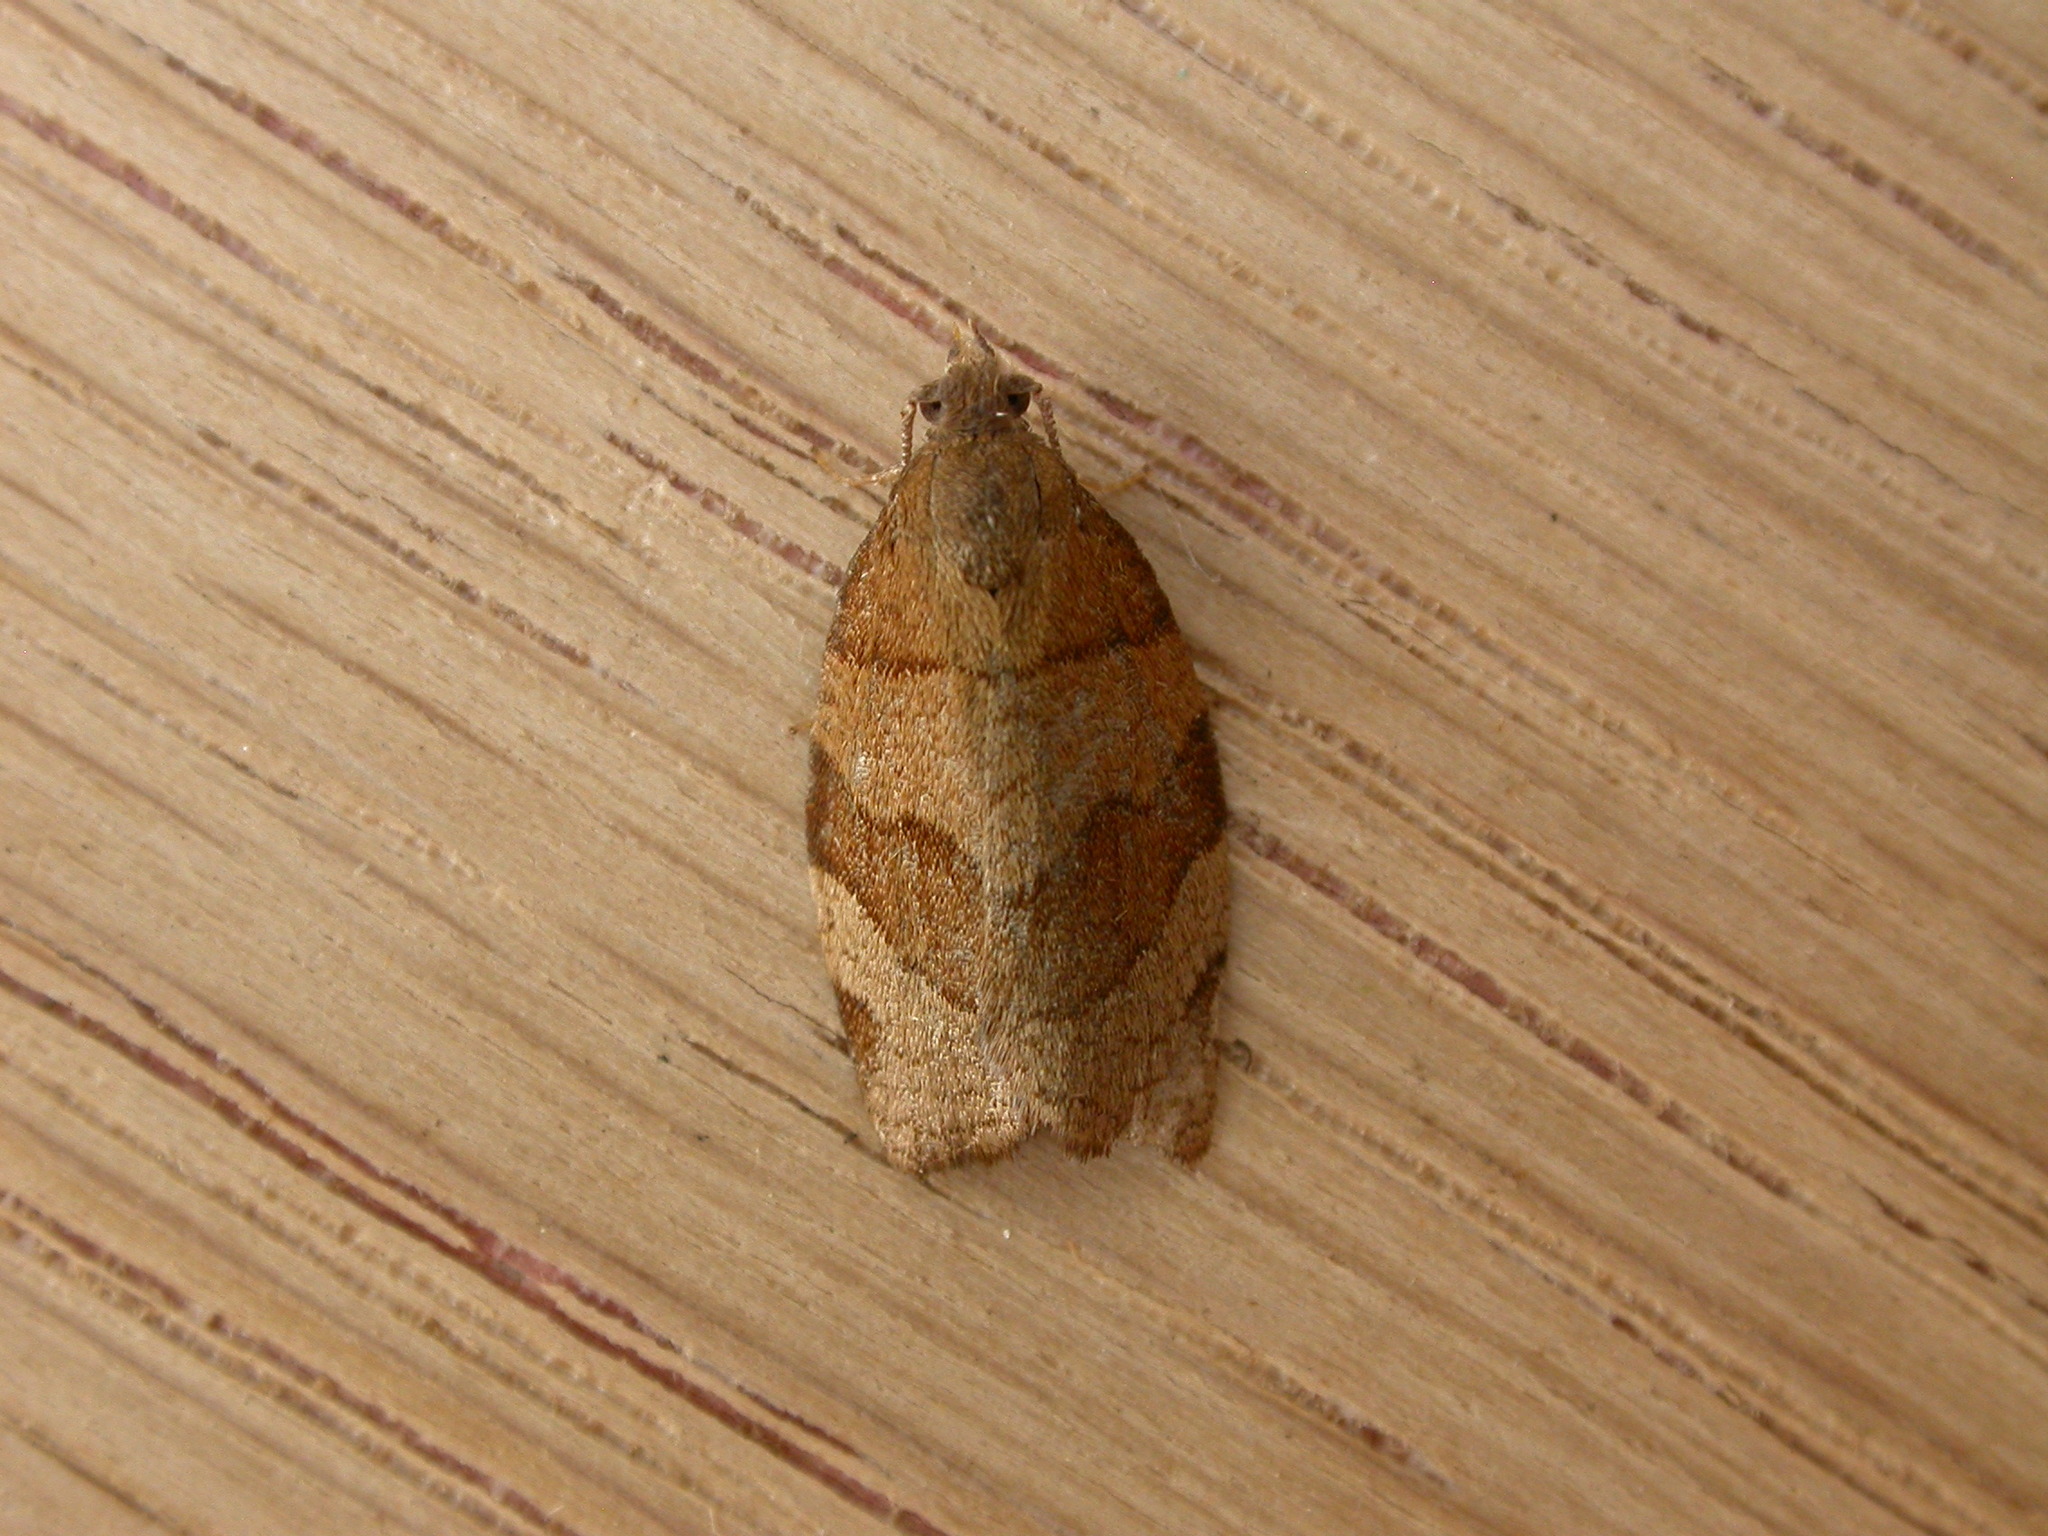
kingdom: Animalia
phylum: Arthropoda
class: Insecta
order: Lepidoptera
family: Tortricidae
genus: Pandemis
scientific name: Pandemis cerasana
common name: Barred fruit-tree tortrix
